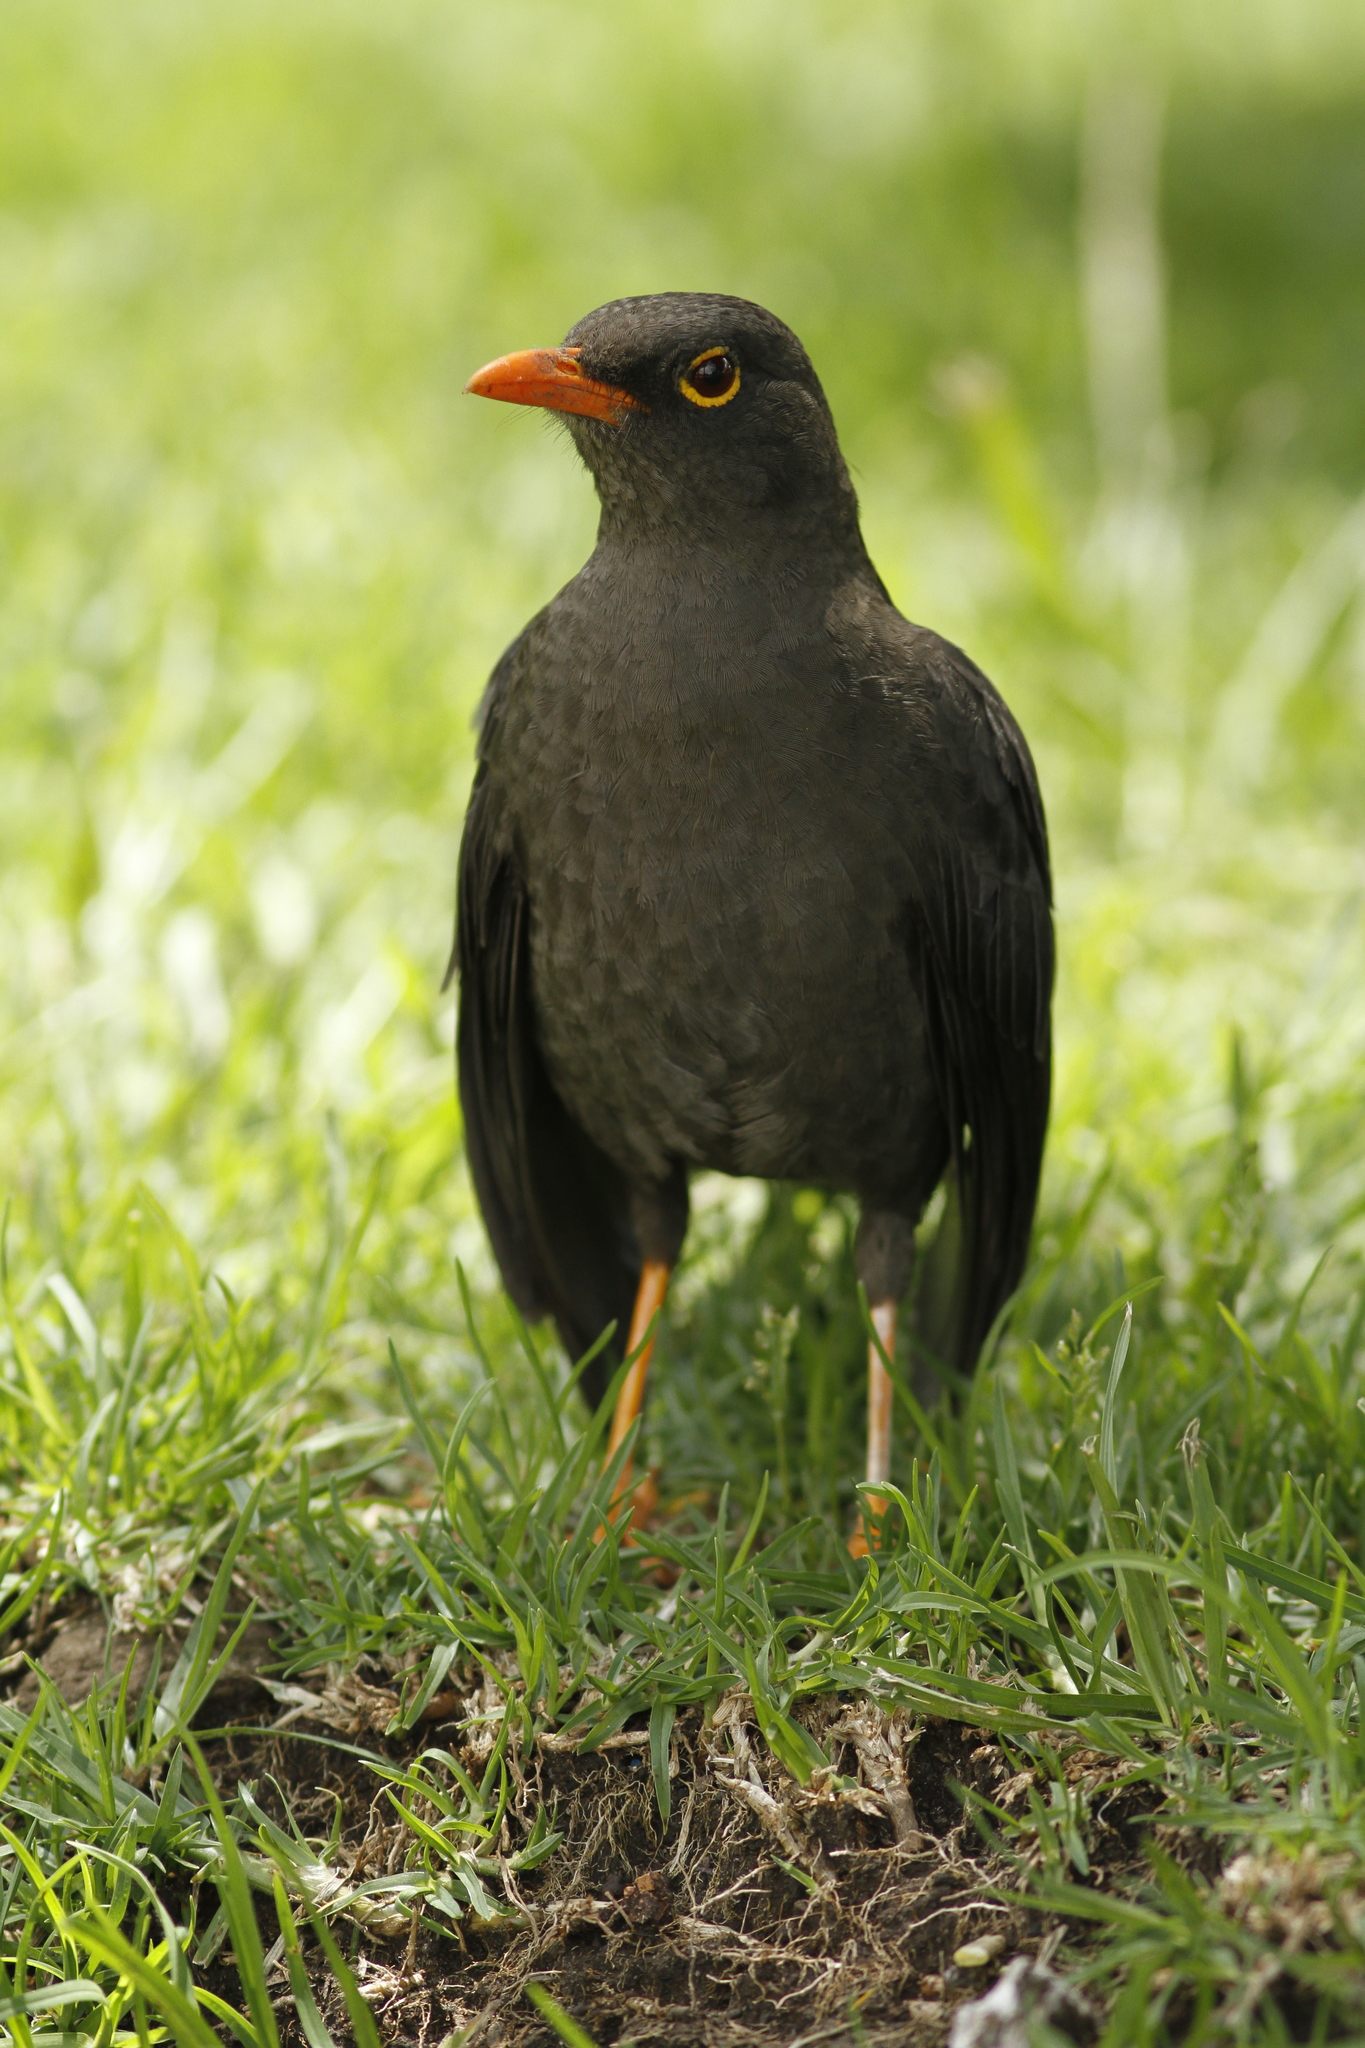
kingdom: Animalia
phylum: Chordata
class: Aves
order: Passeriformes
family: Turdidae
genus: Turdus
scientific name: Turdus fuscater
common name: Great thrush
